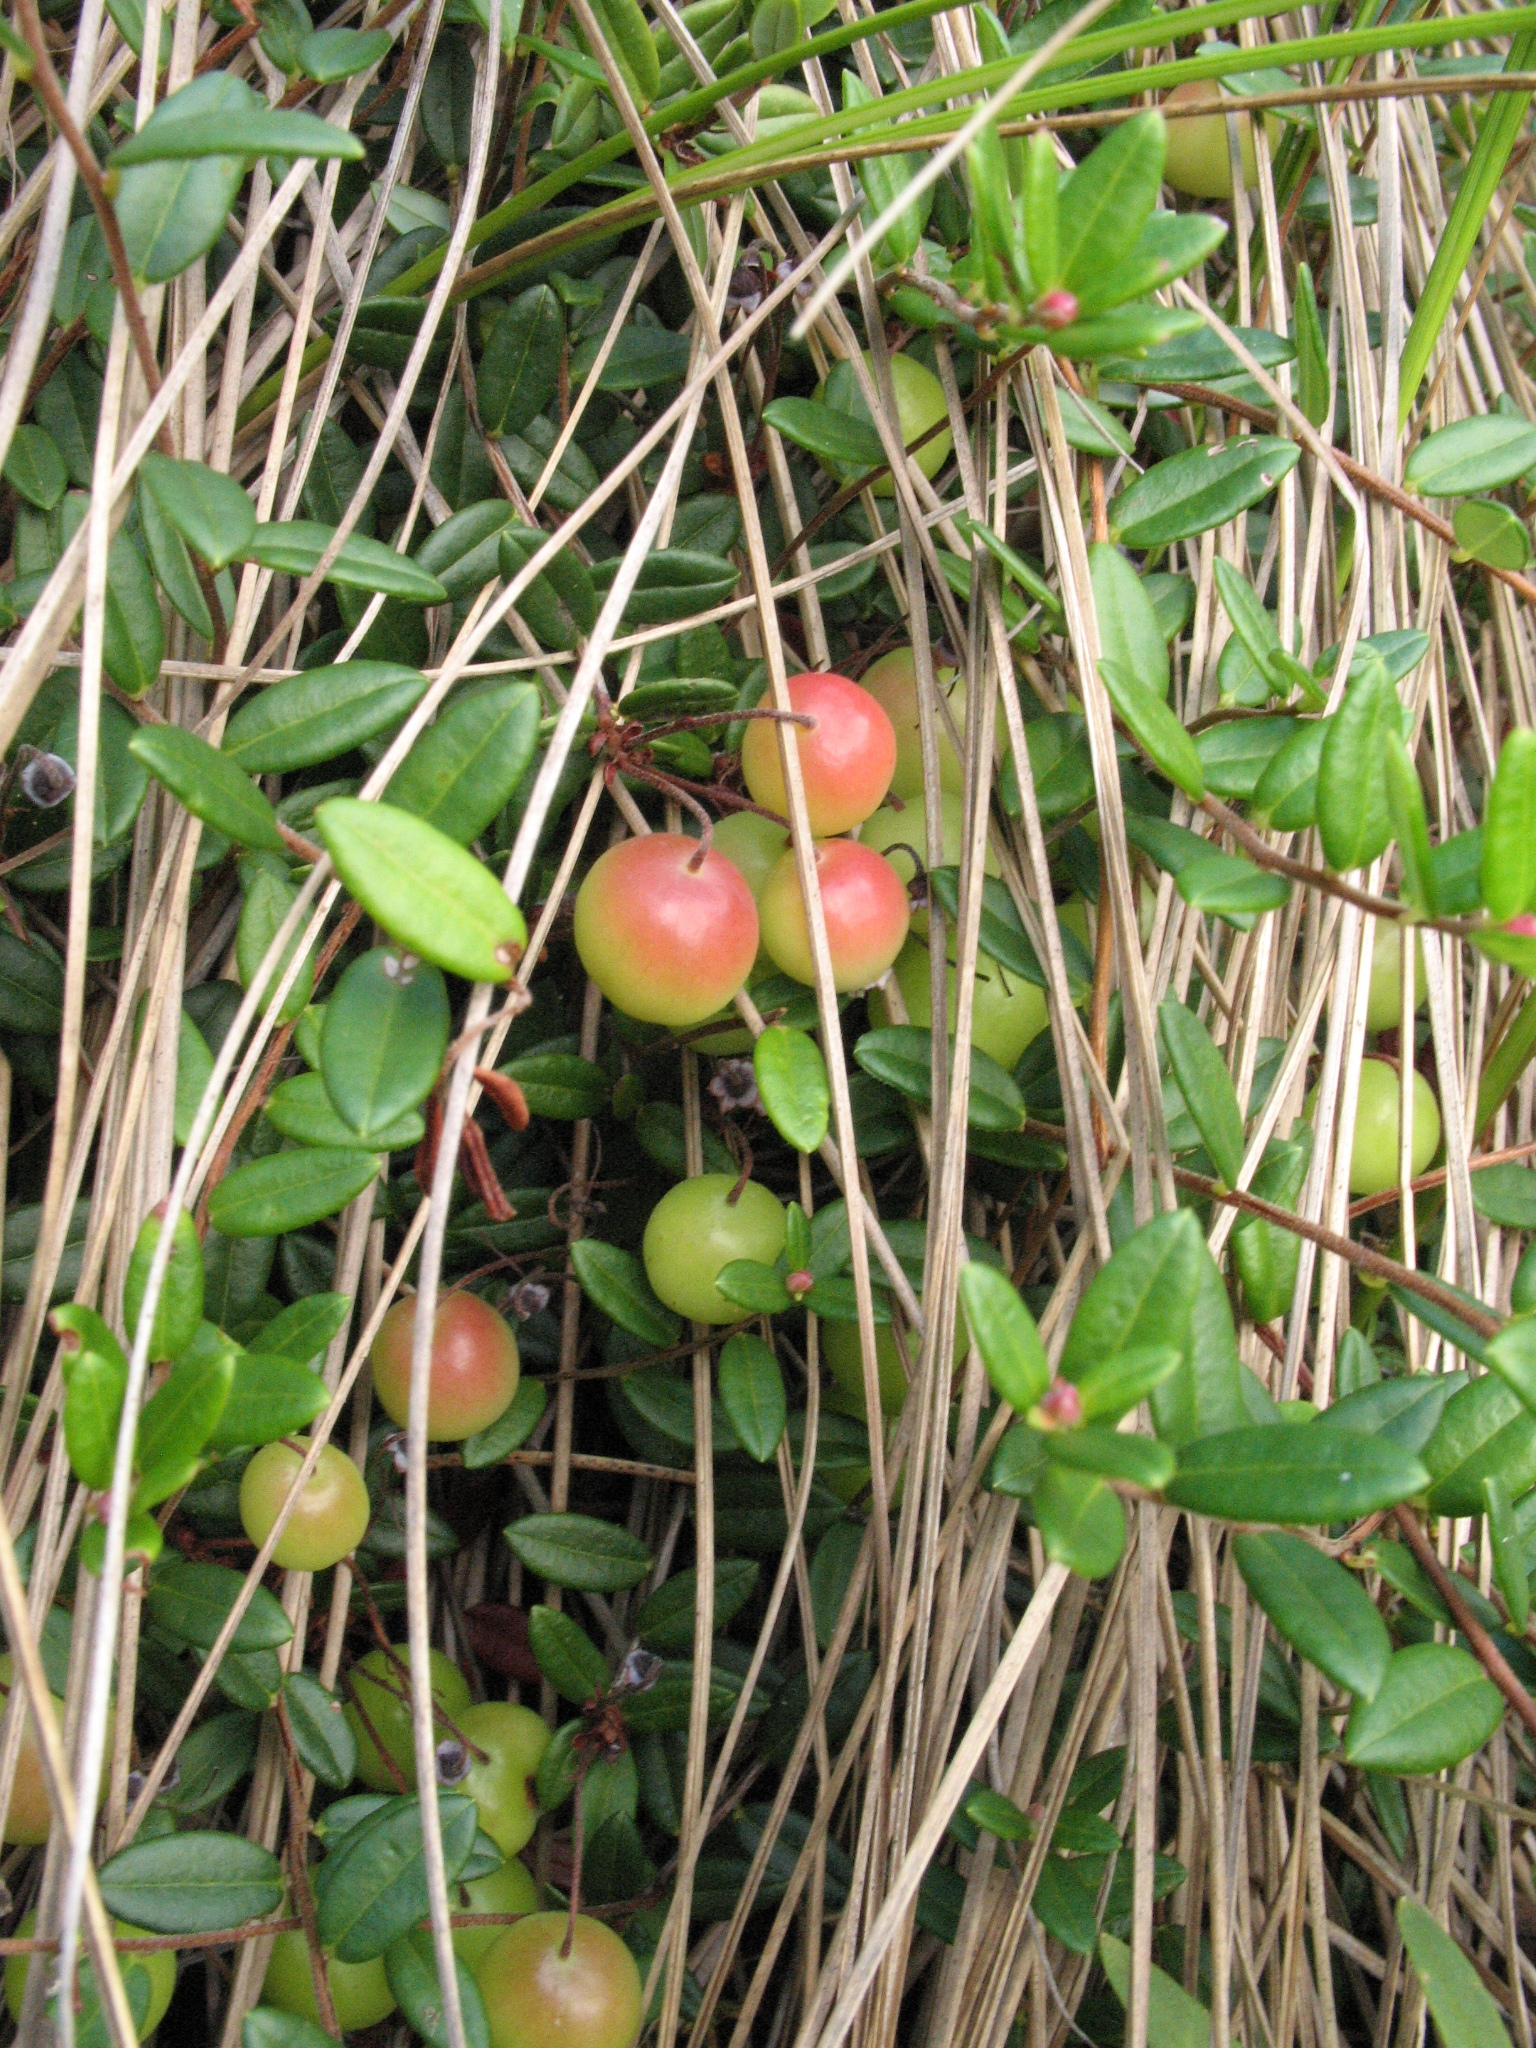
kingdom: Plantae
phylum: Tracheophyta
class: Magnoliopsida
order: Ericales
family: Ericaceae
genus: Vaccinium
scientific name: Vaccinium oxycoccos
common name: Cranberry
